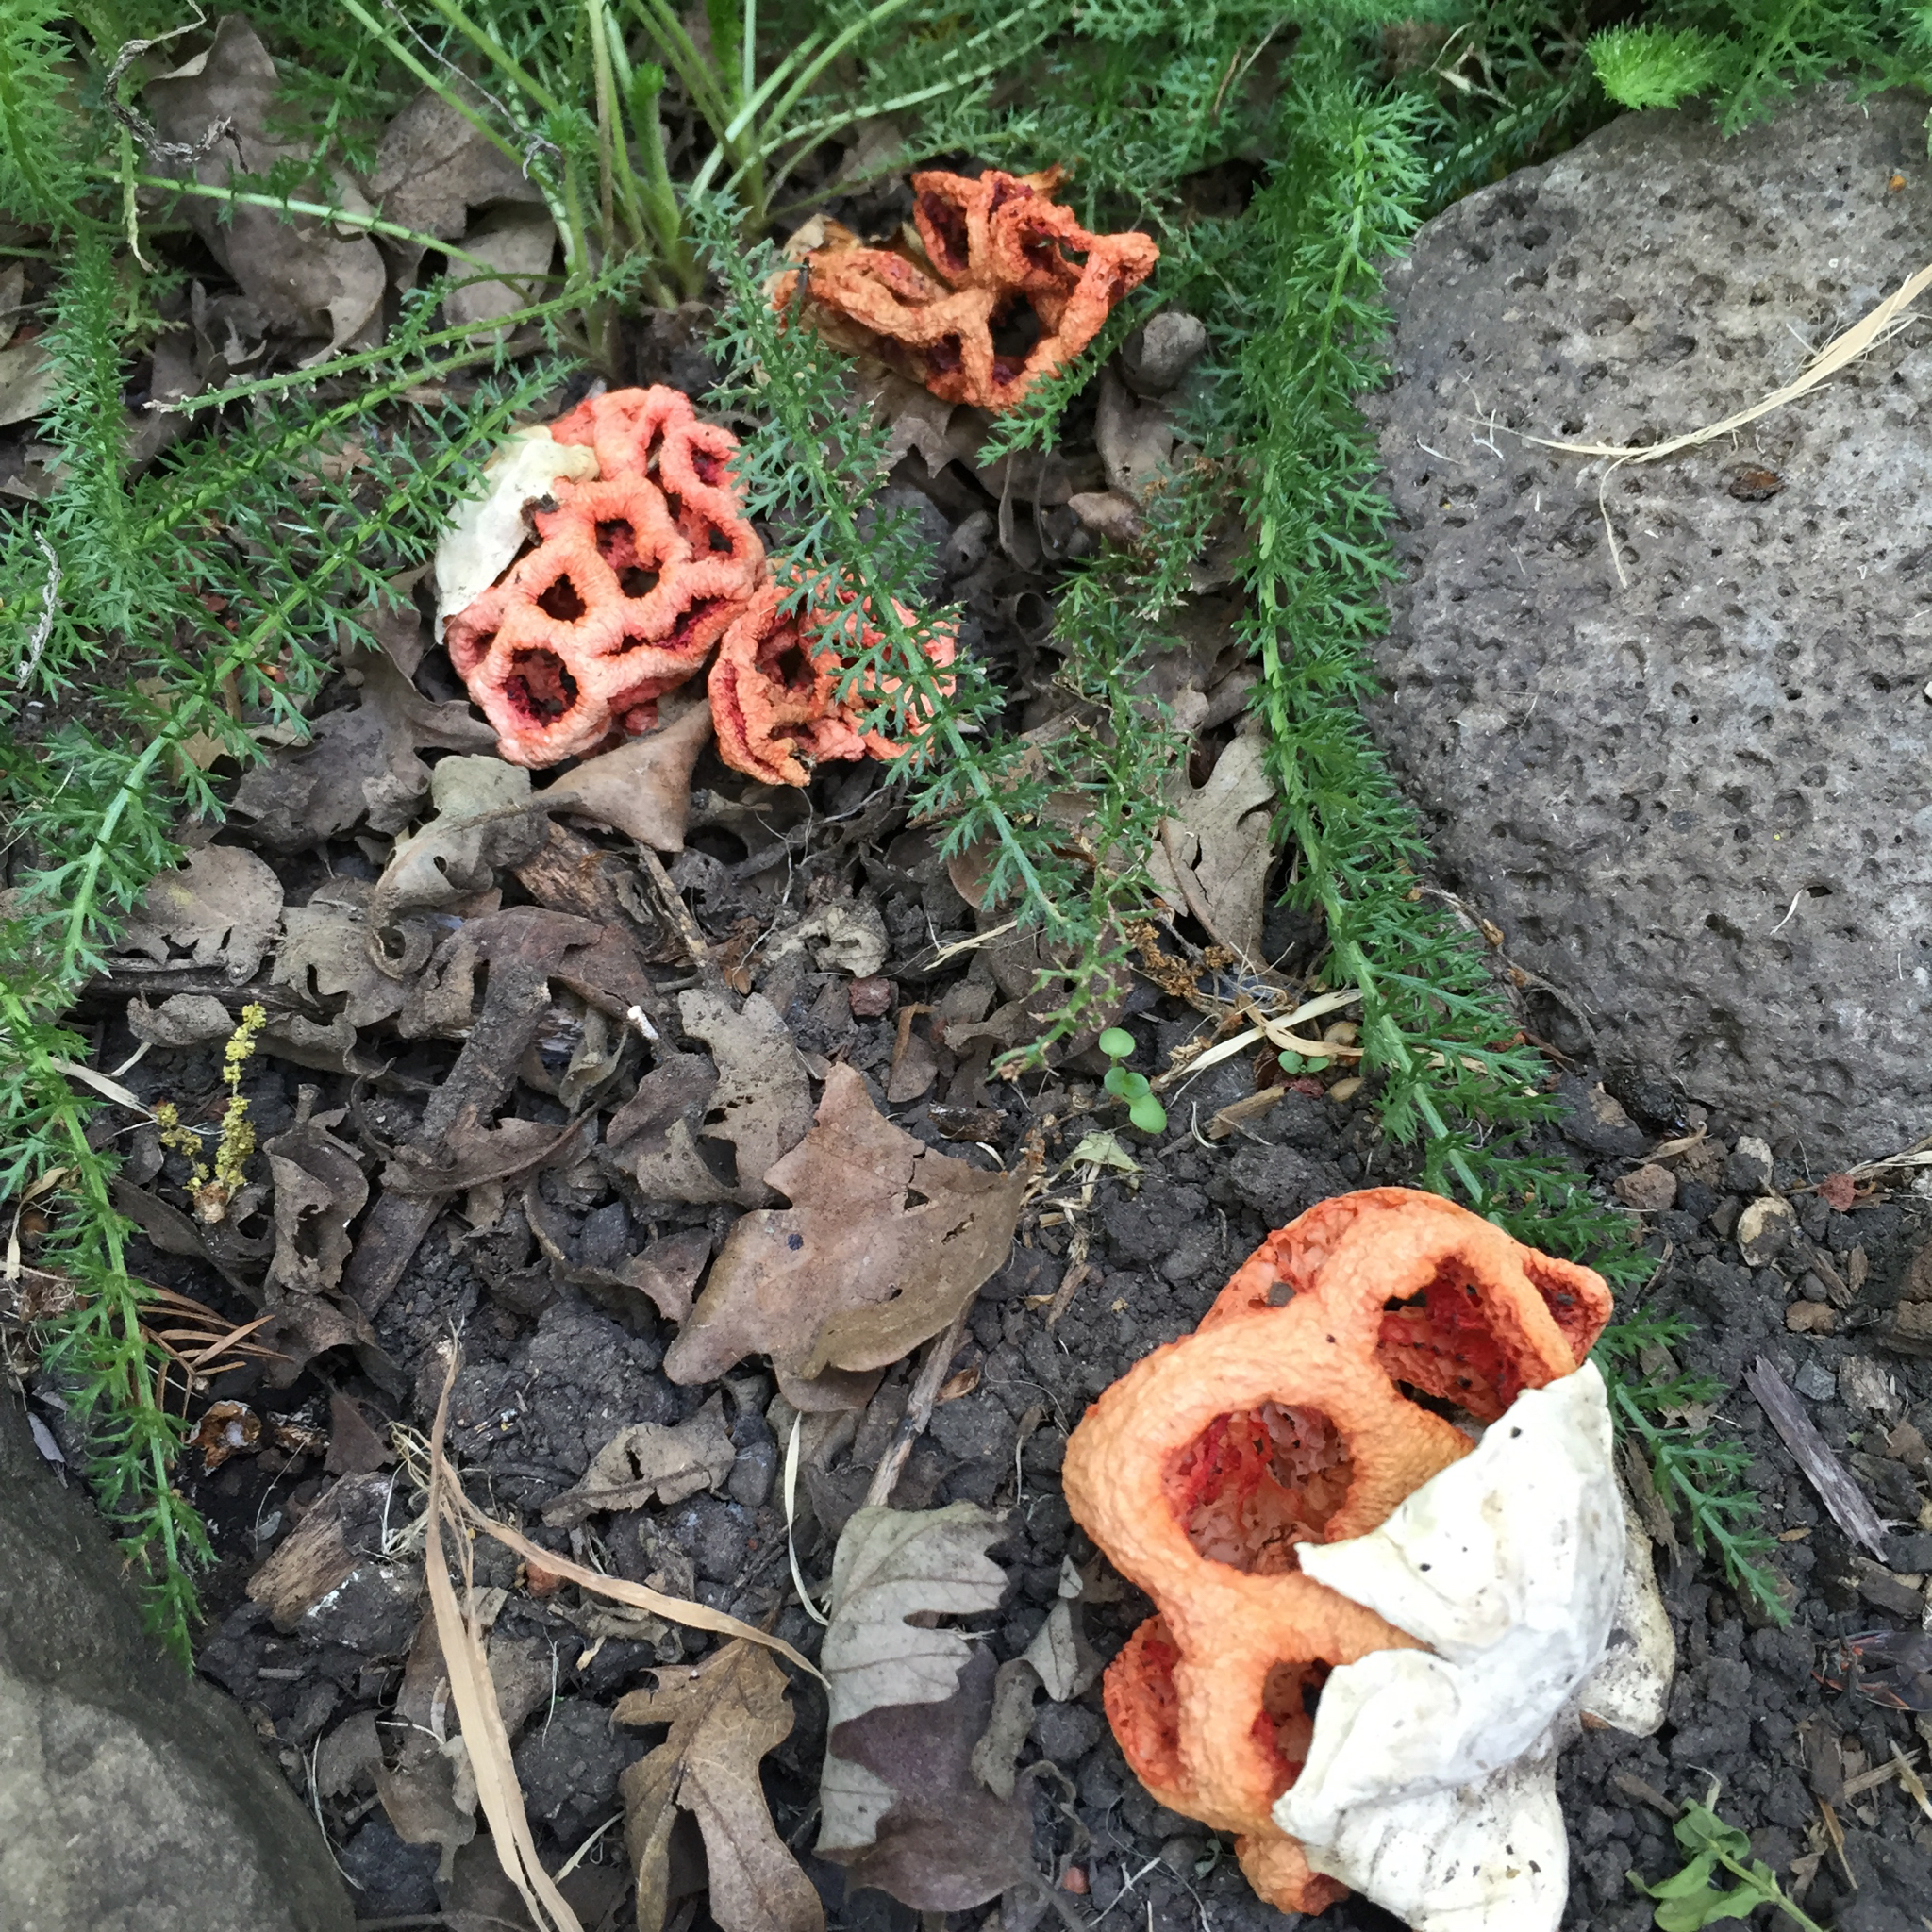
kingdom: Fungi
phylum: Basidiomycota
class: Agaricomycetes
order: Phallales
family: Phallaceae
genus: Clathrus
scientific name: Clathrus ruber
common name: Red cage
